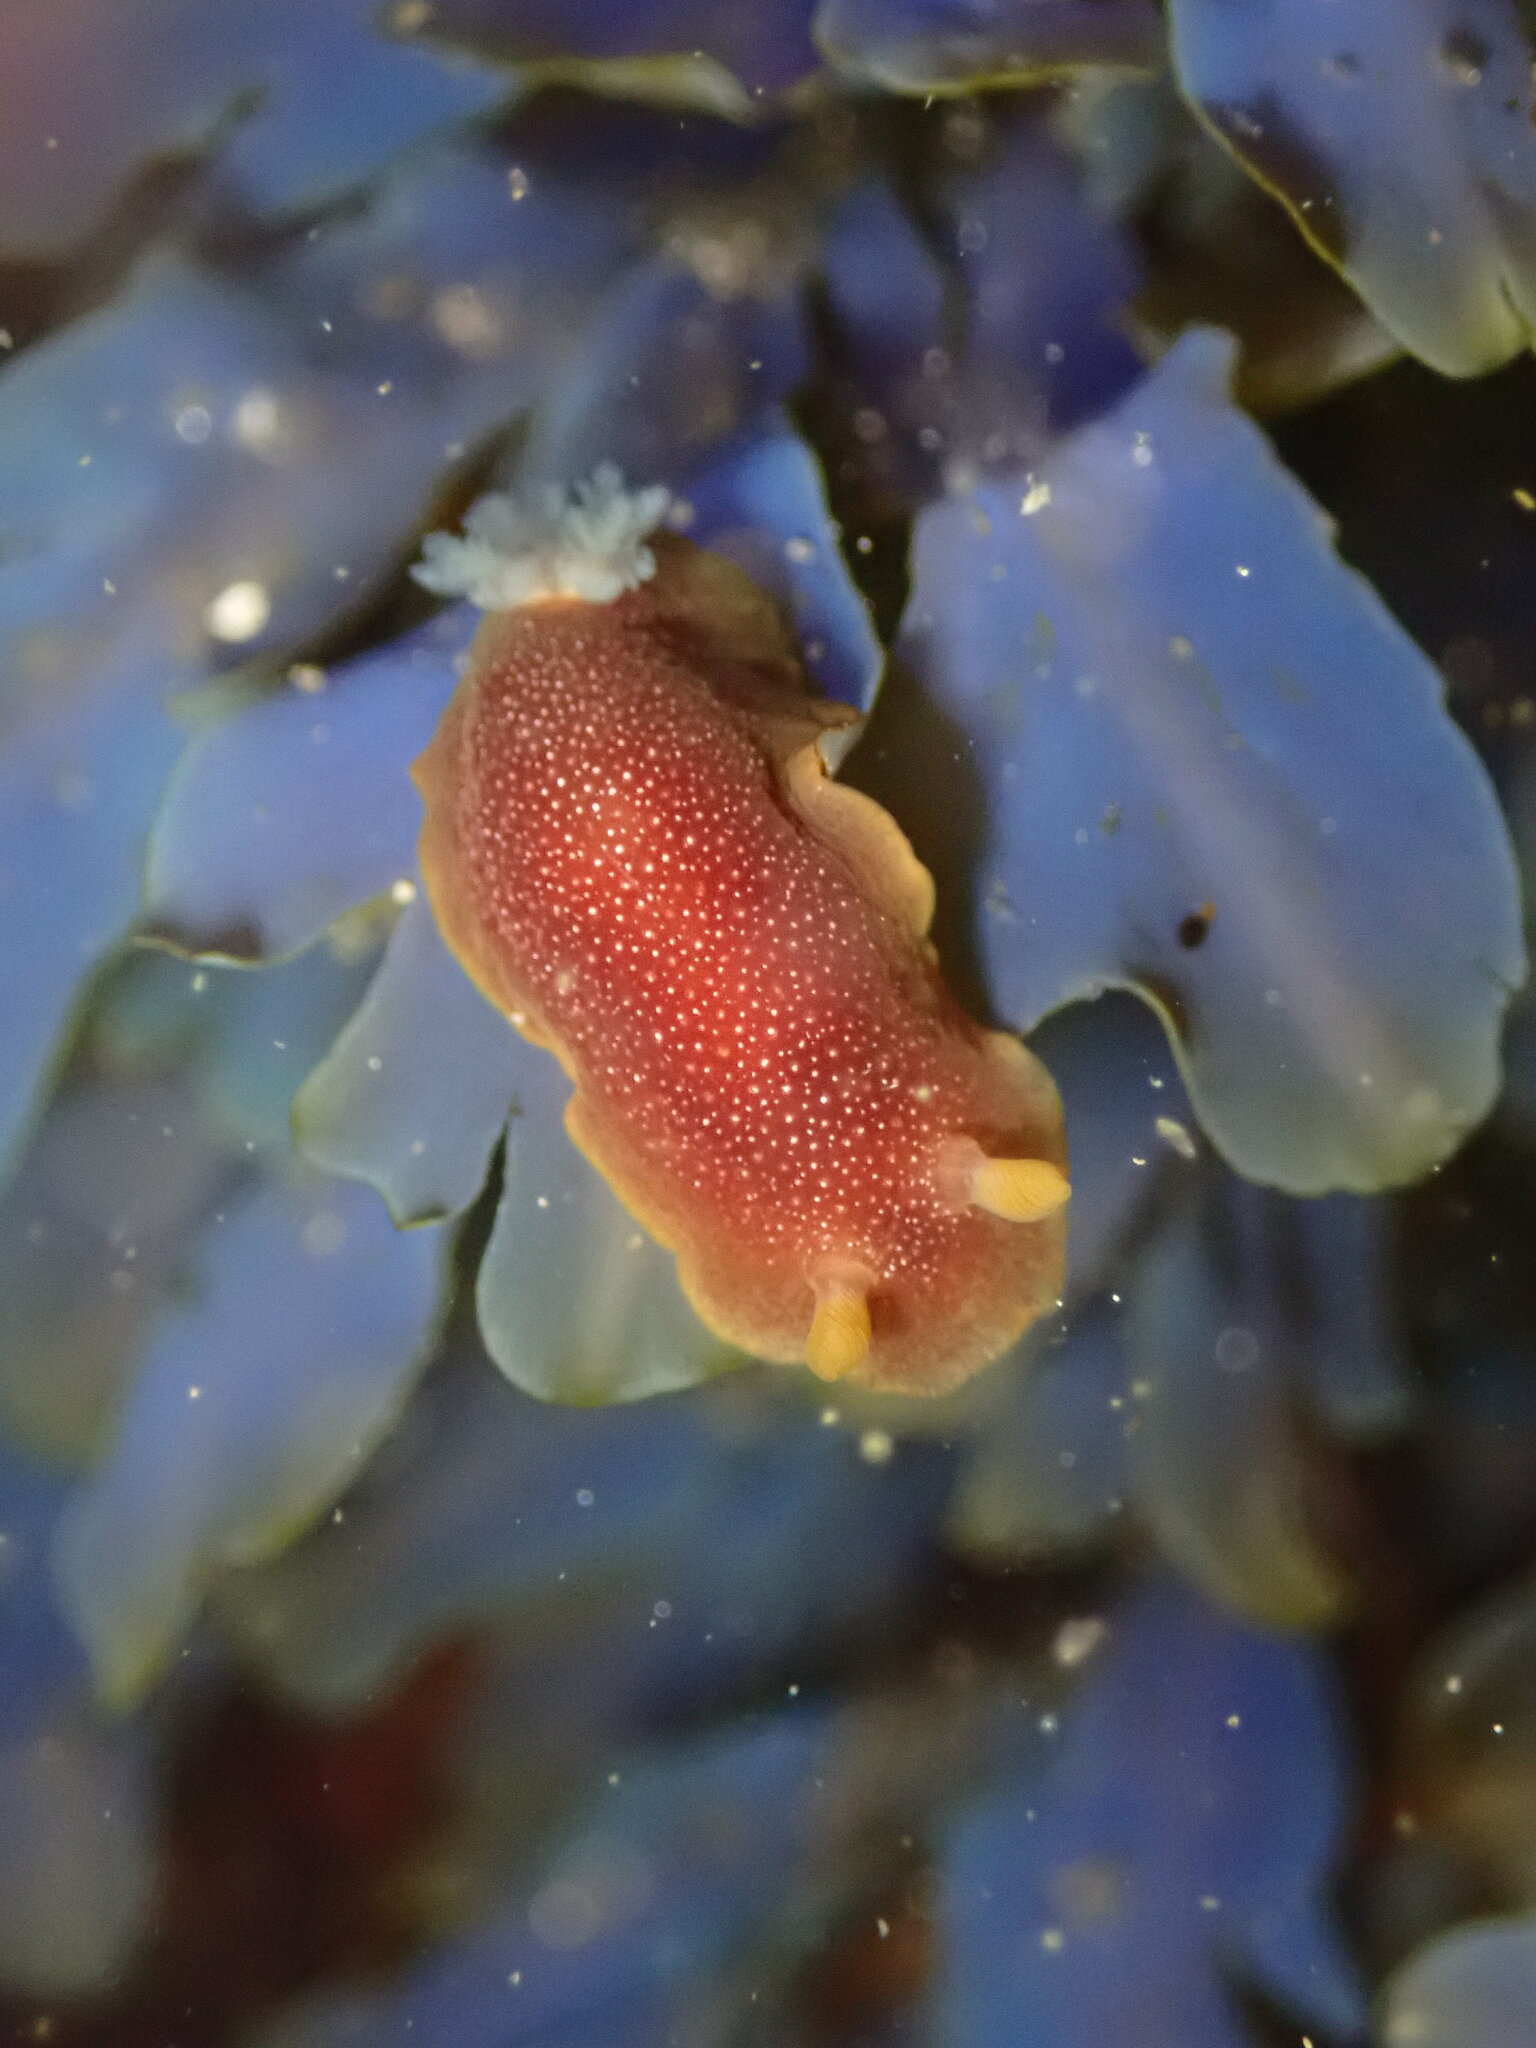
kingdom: Animalia
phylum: Mollusca
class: Gastropoda
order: Nudibranchia
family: Dendrodorididae
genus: Doriopsilla
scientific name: Doriopsilla albopunctata
